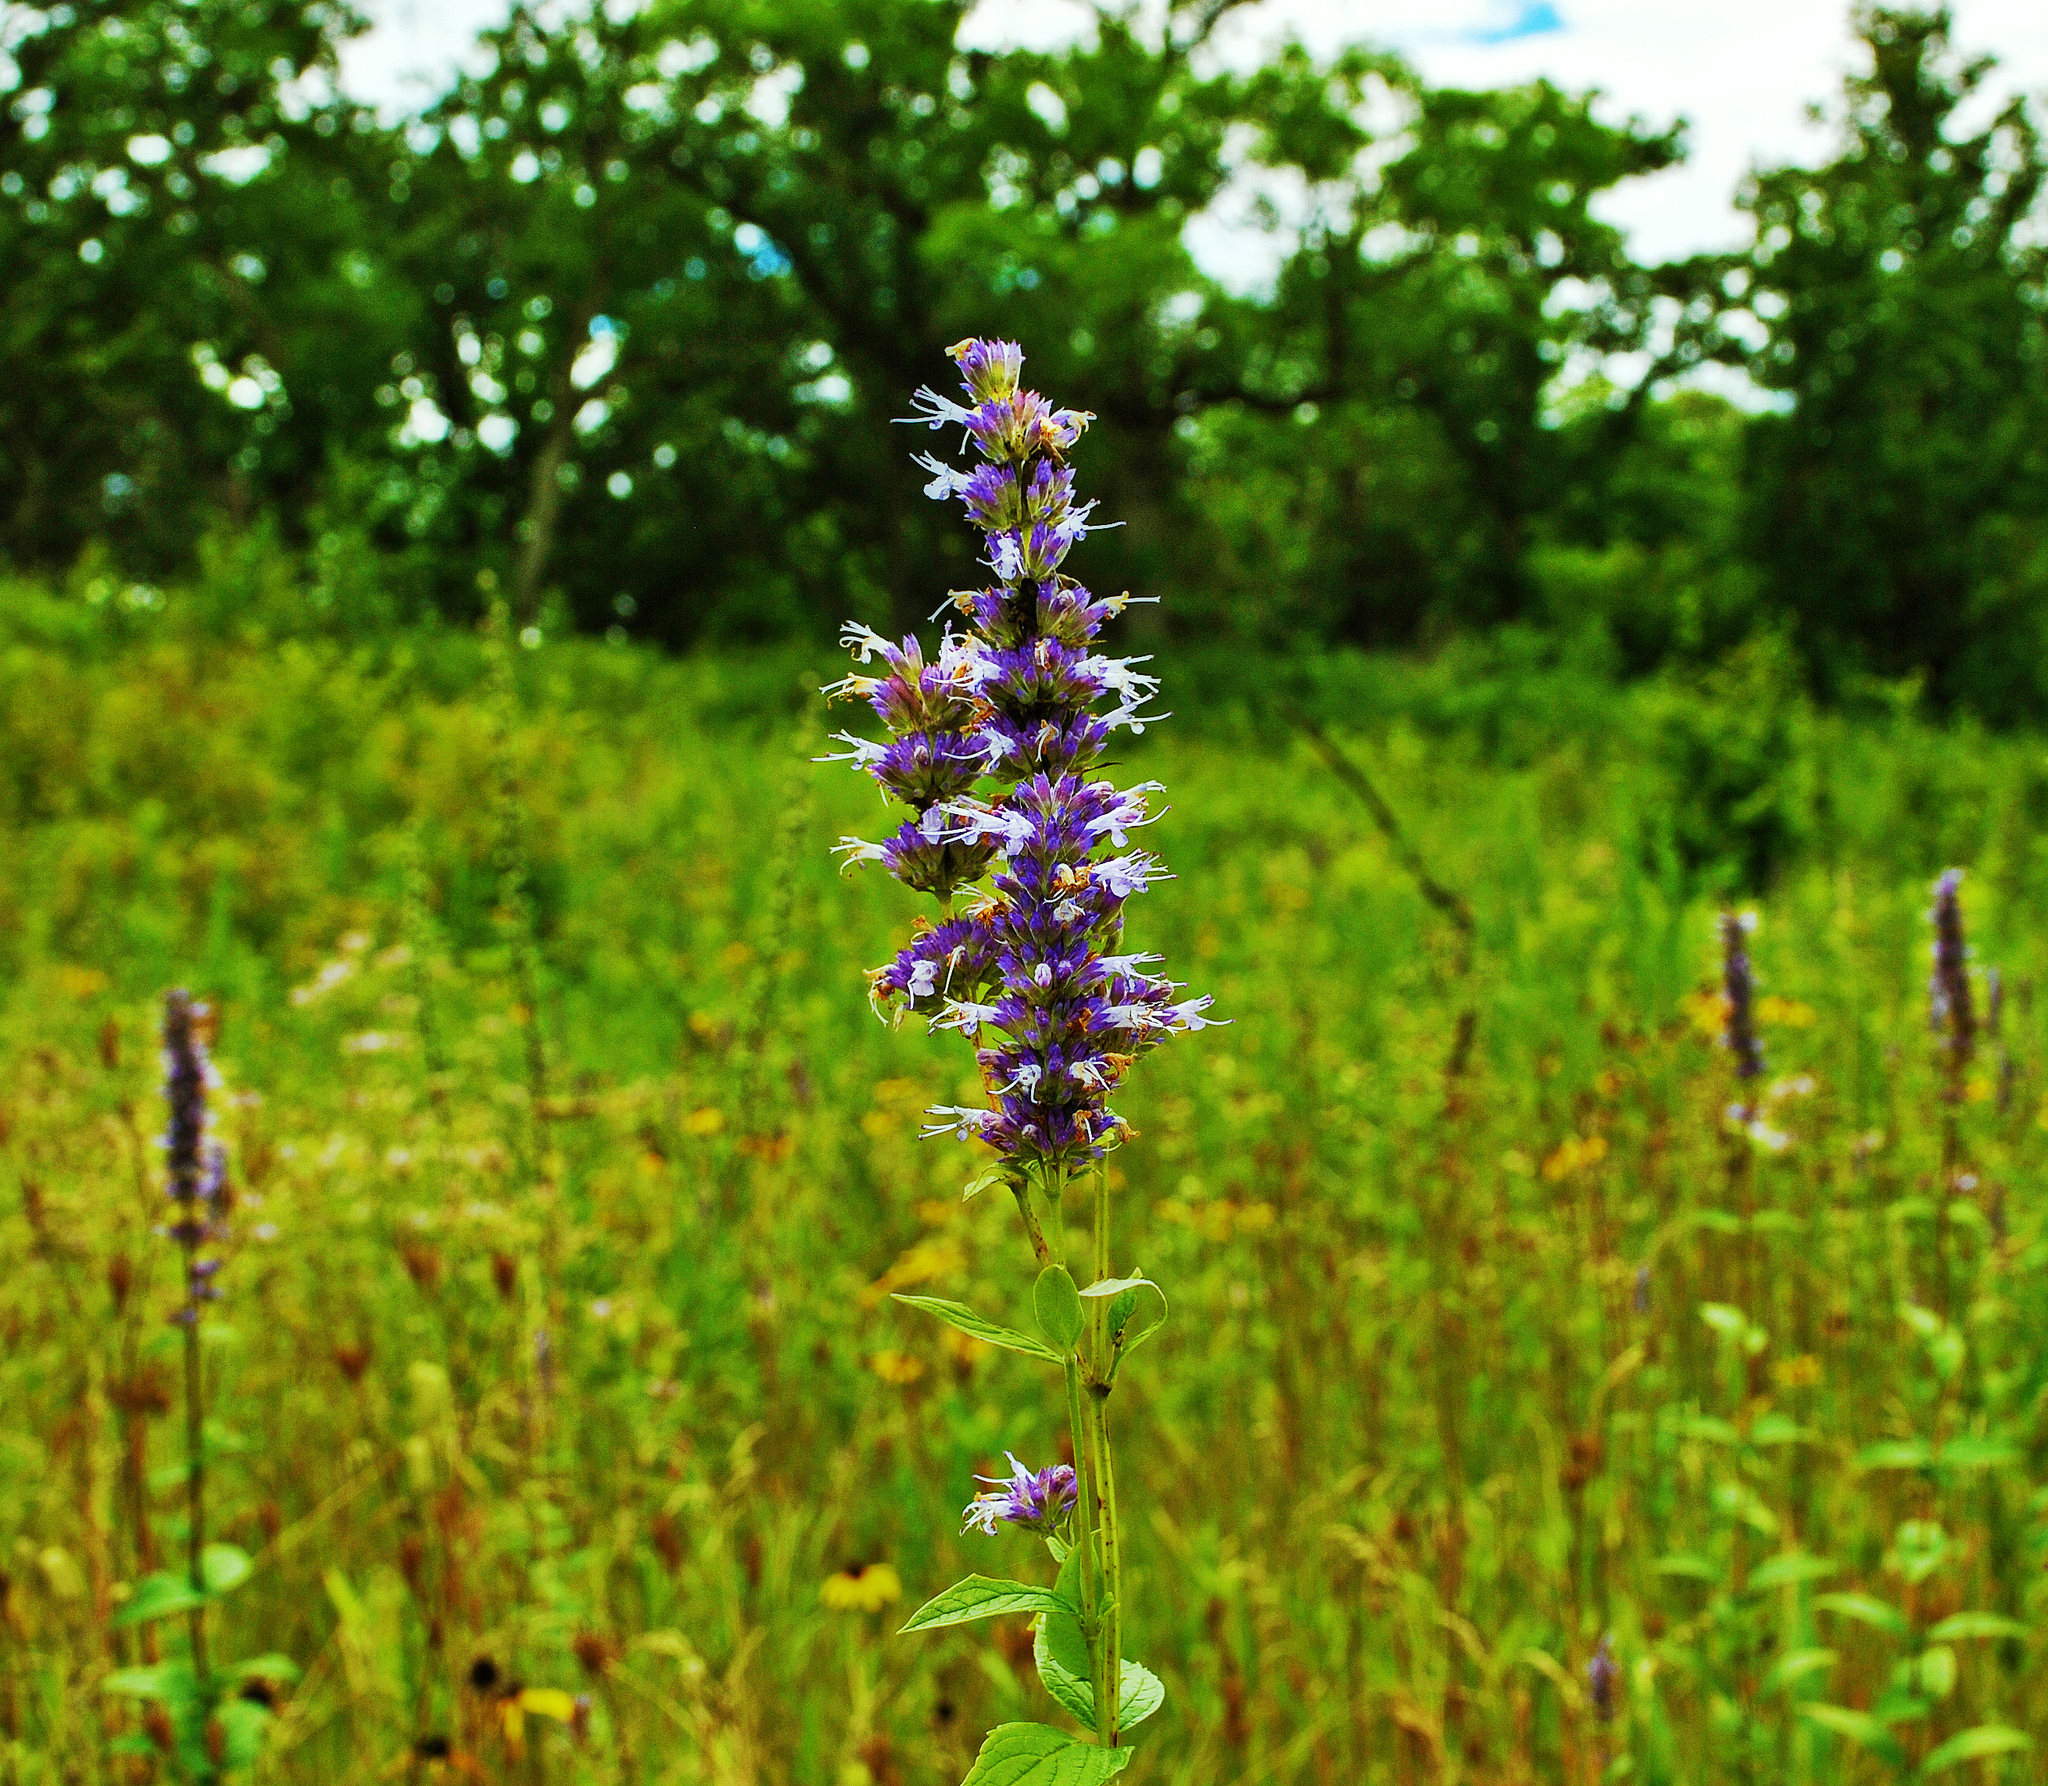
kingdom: Plantae
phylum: Tracheophyta
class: Magnoliopsida
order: Lamiales
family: Lamiaceae
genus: Agastache
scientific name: Agastache foeniculum
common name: Anise hyssop
